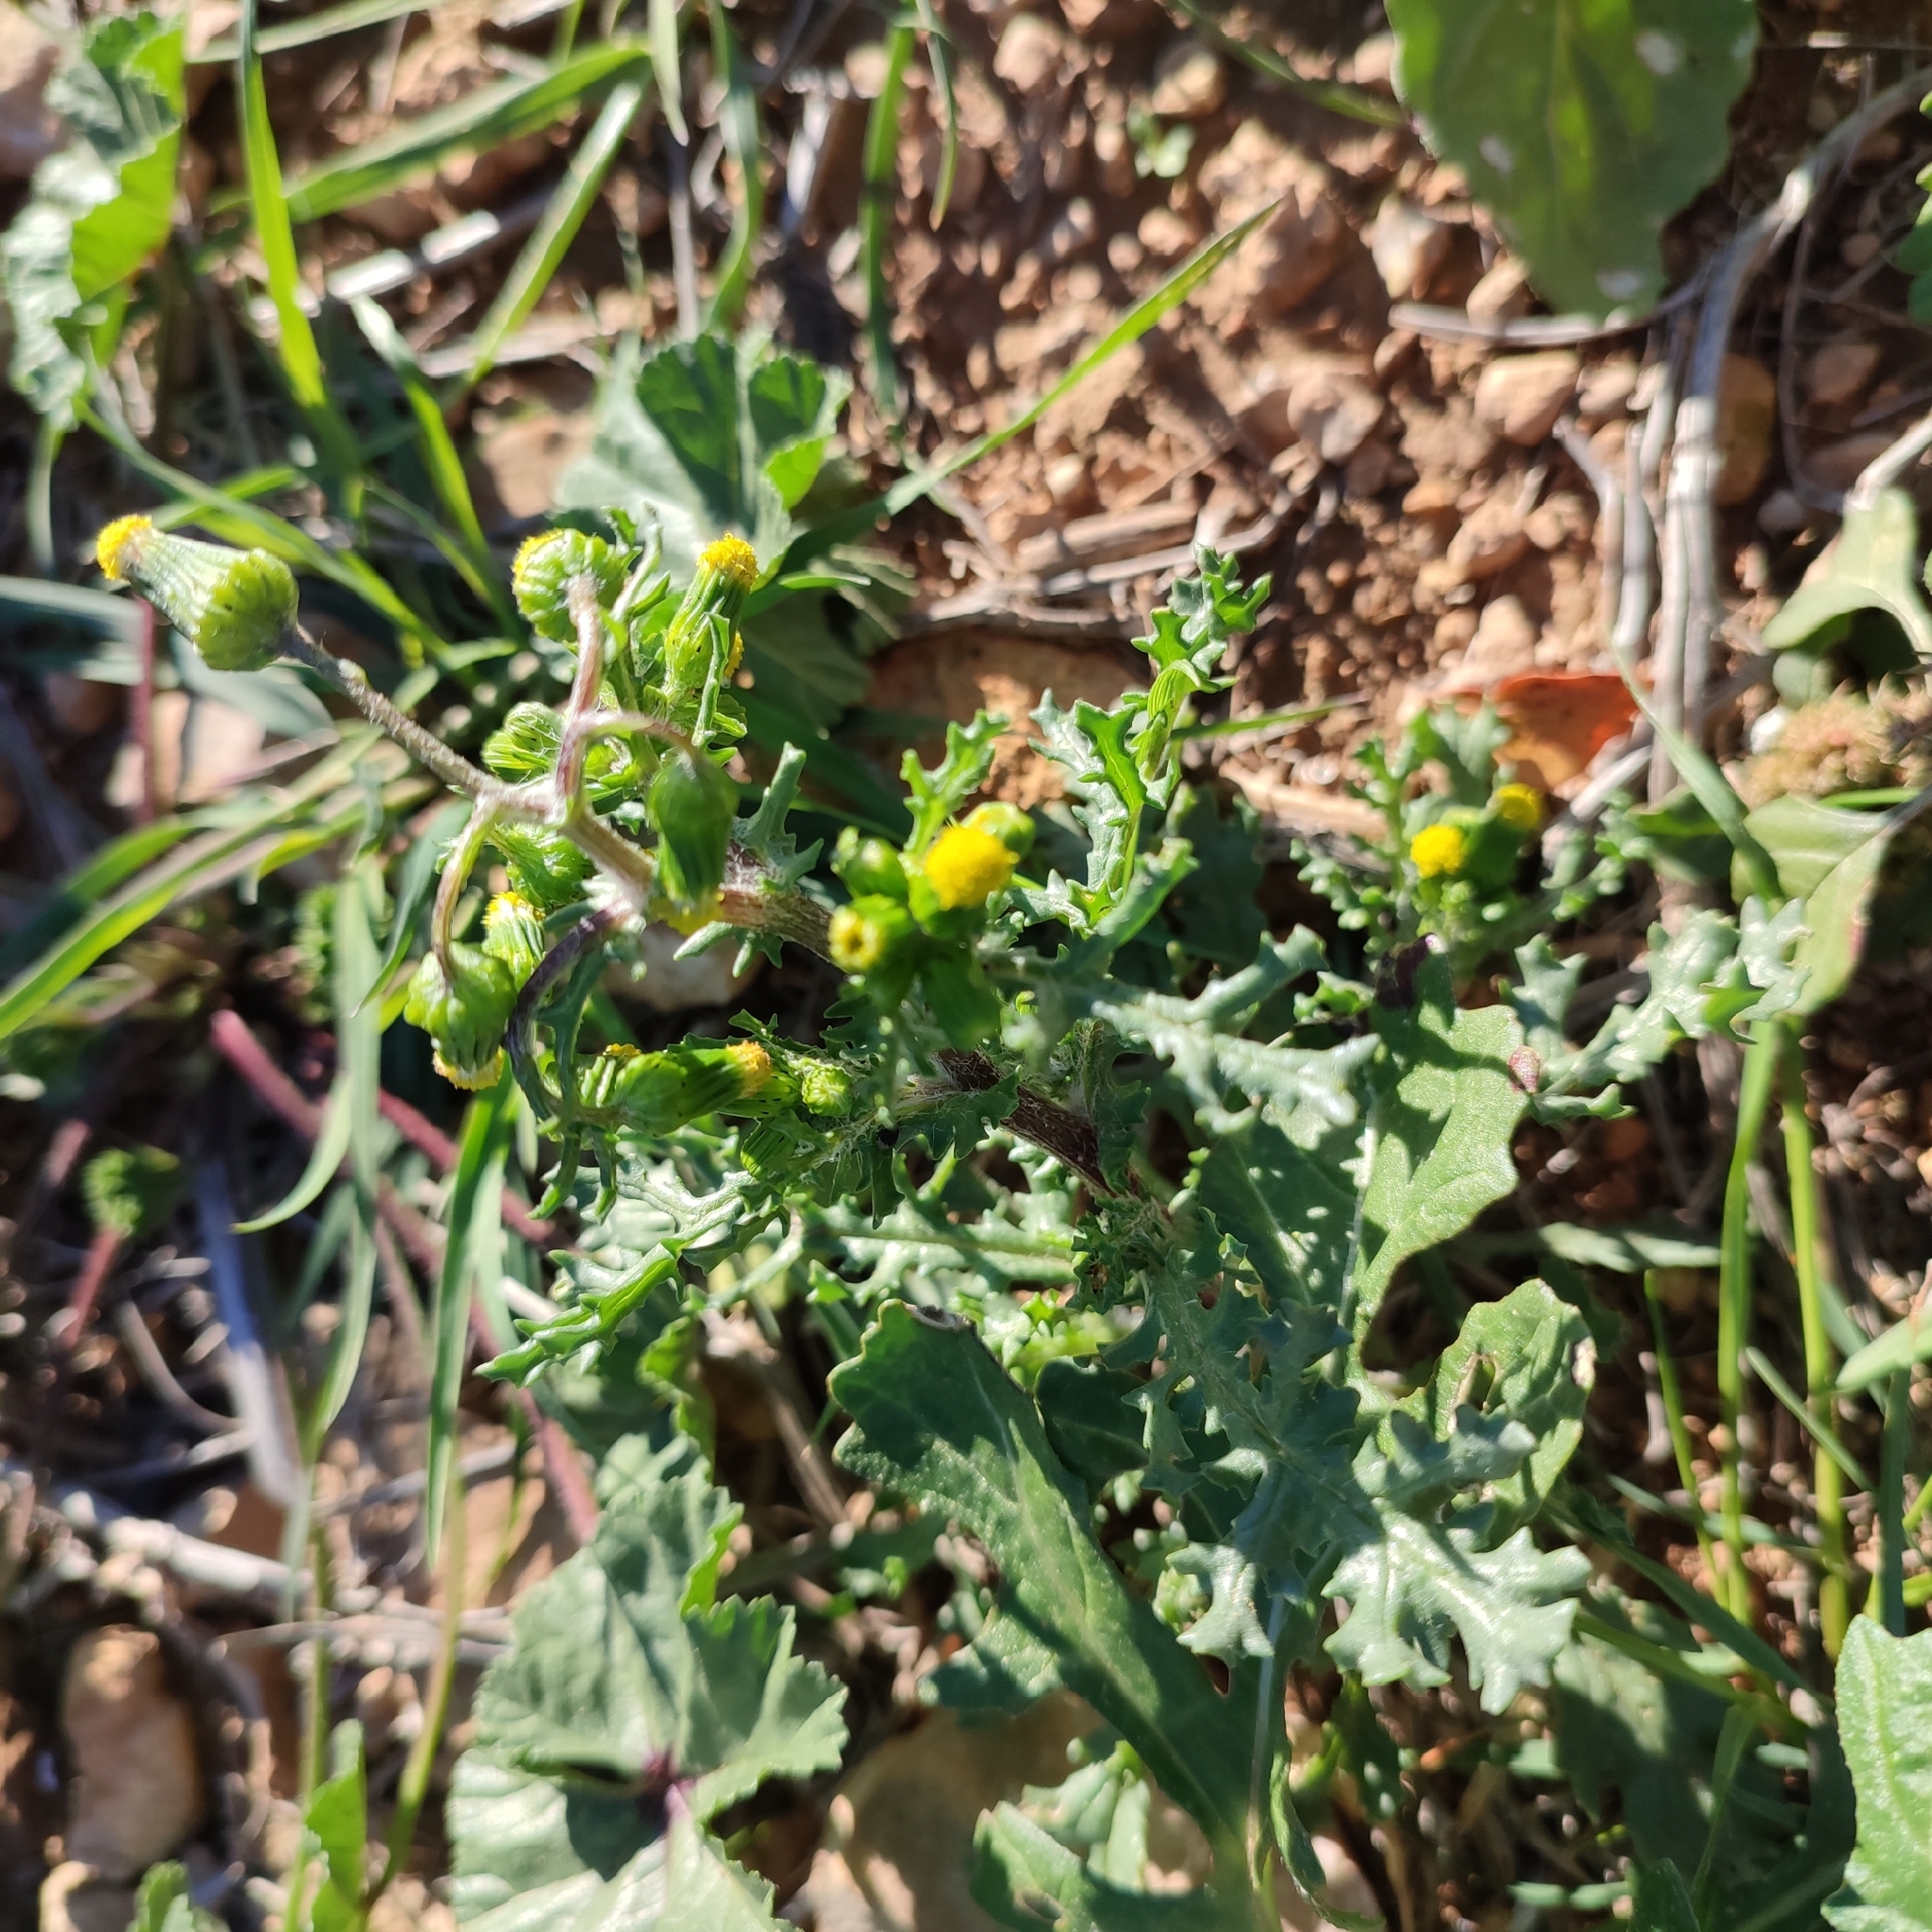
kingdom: Plantae
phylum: Tracheophyta
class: Magnoliopsida
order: Asterales
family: Asteraceae
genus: Senecio
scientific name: Senecio vulgaris
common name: Old-man-in-the-spring
